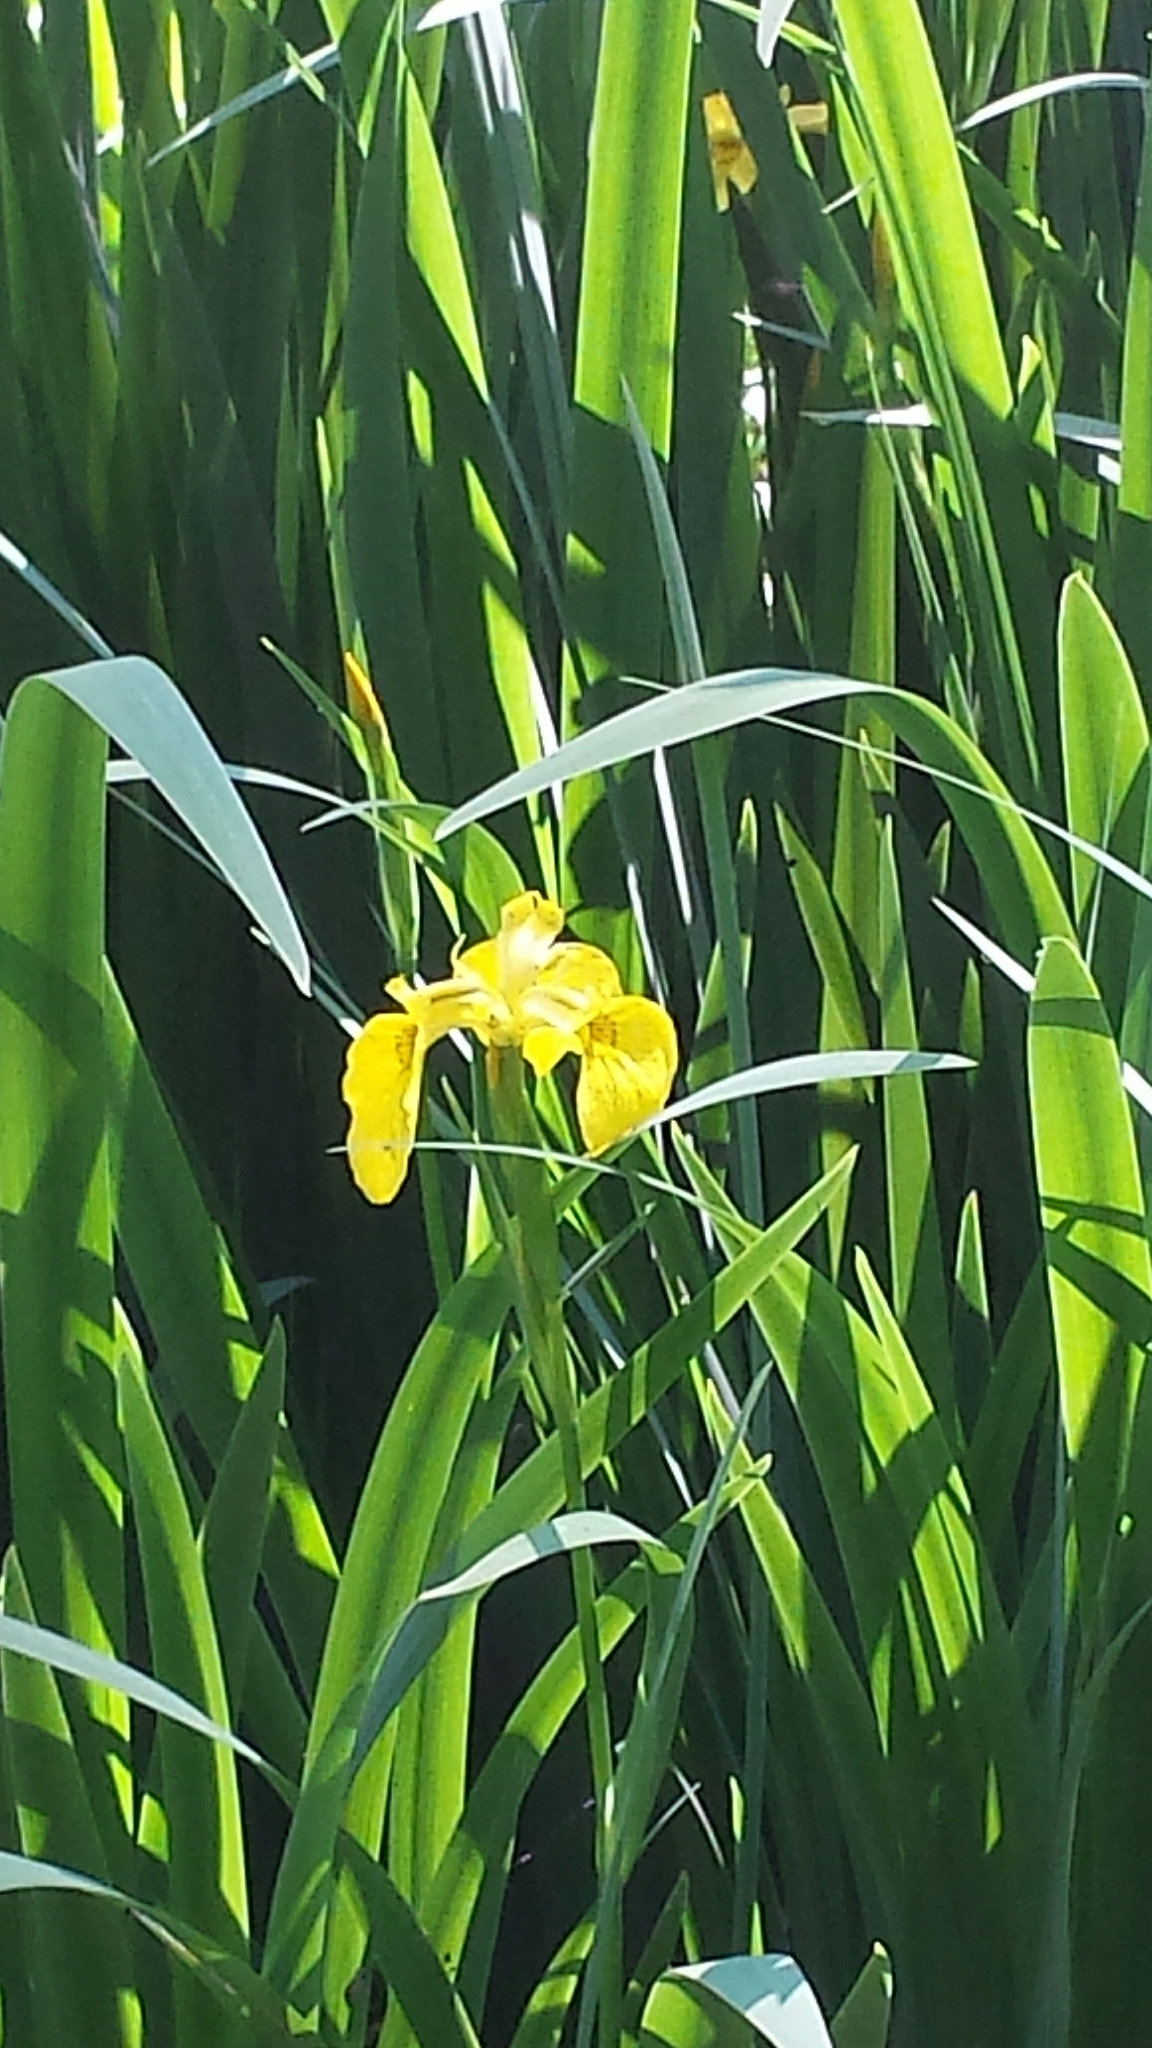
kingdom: Plantae
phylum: Tracheophyta
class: Liliopsida
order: Asparagales
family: Iridaceae
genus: Iris
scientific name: Iris pseudacorus
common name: Yellow flag
